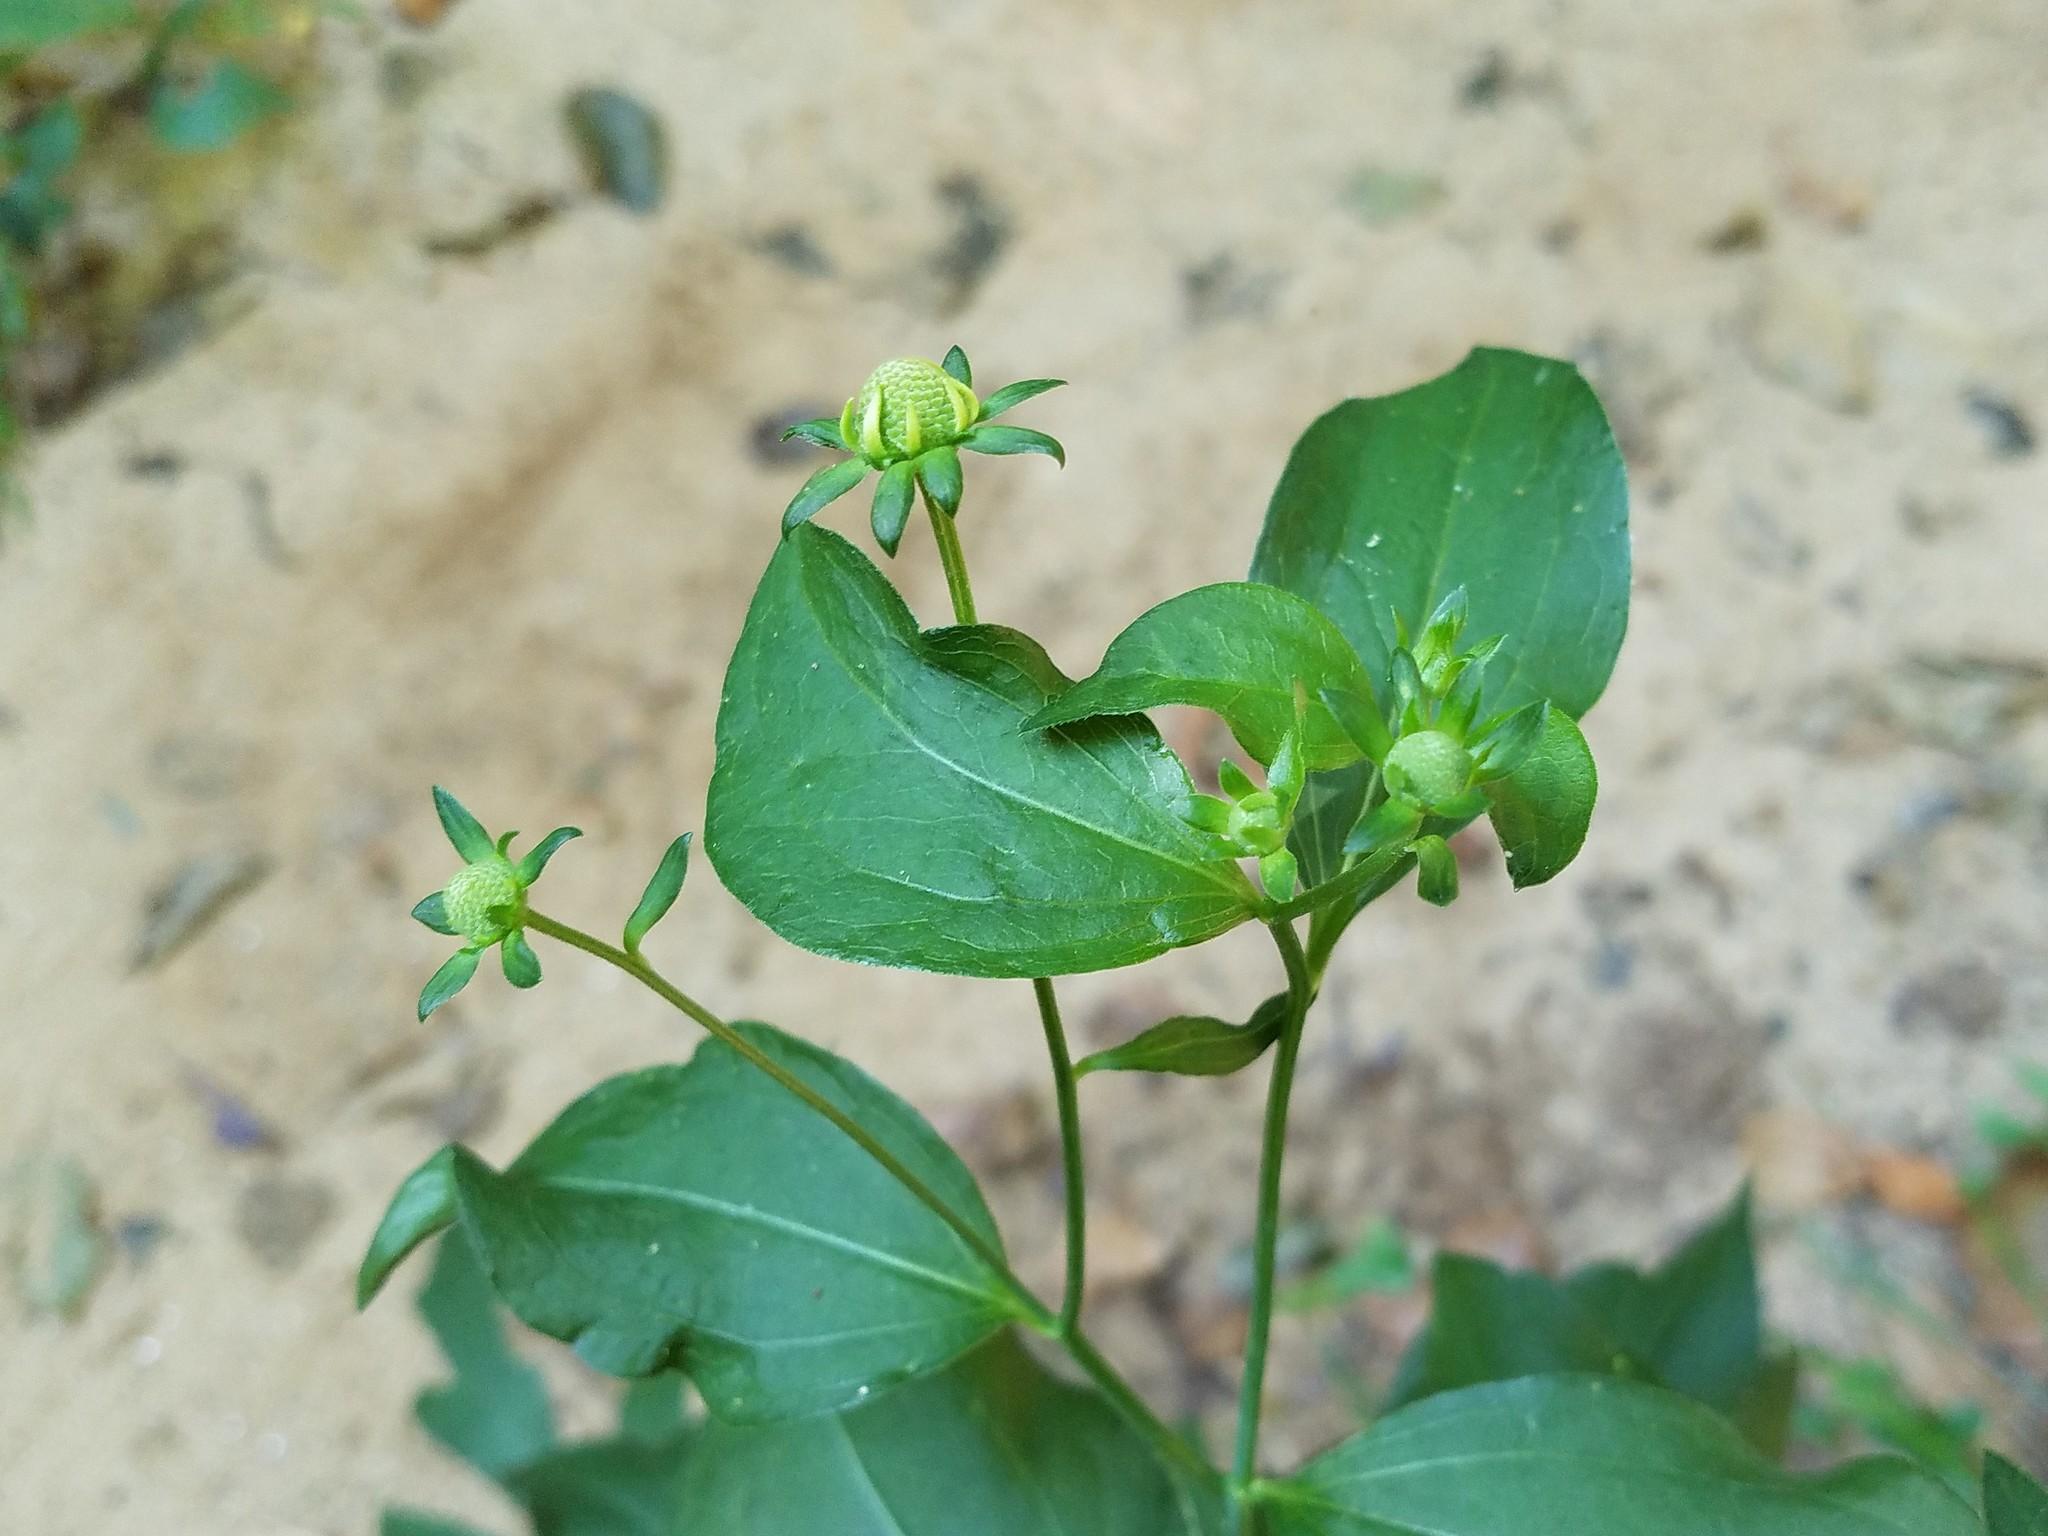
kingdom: Plantae
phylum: Tracheophyta
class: Magnoliopsida
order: Asterales
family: Asteraceae
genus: Rudbeckia
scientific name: Rudbeckia laciniata
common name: Coneflower
